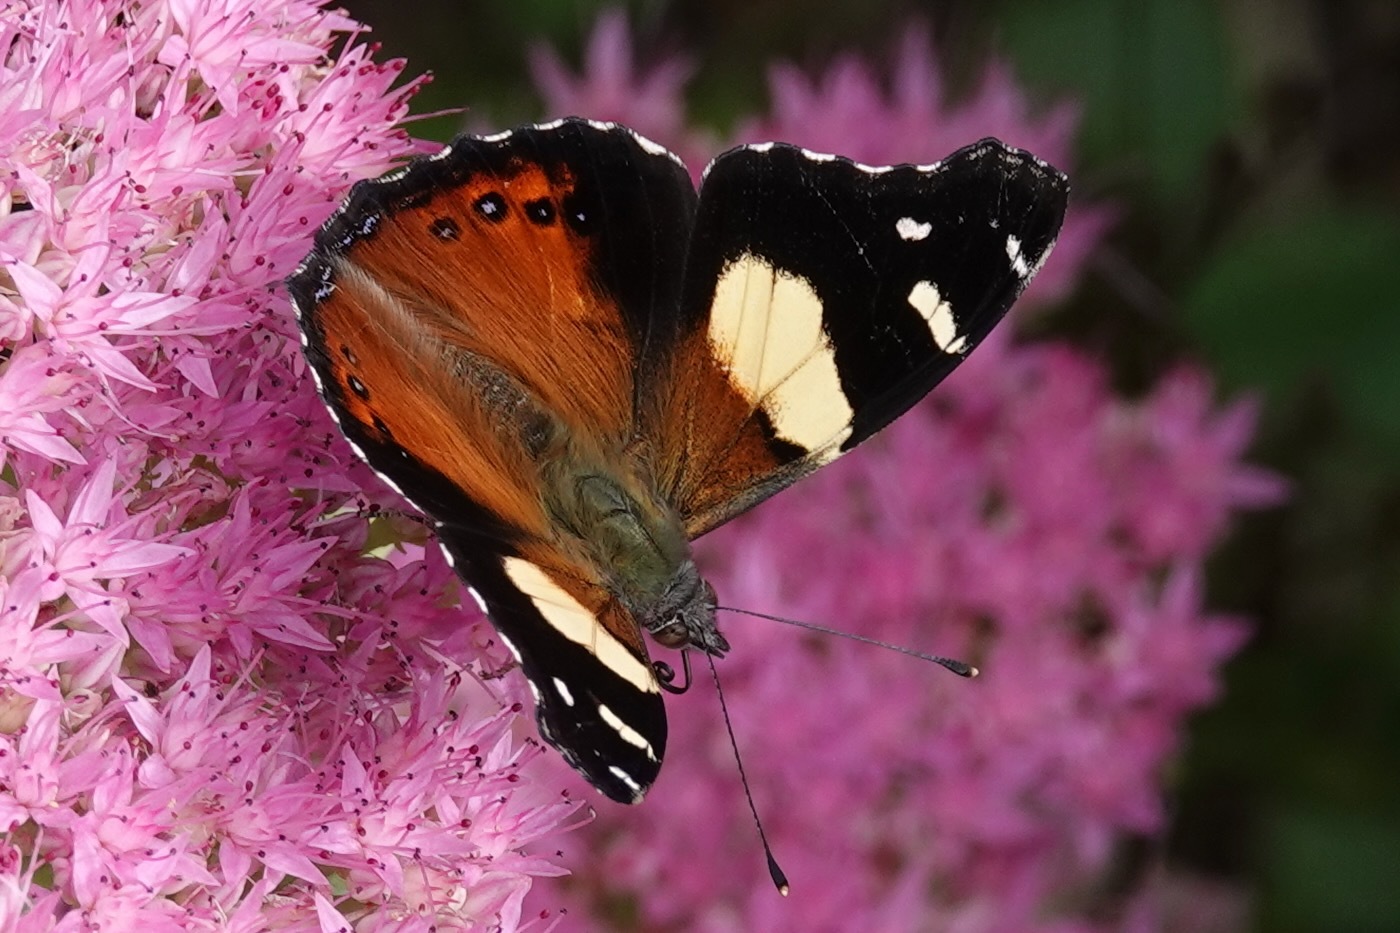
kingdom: Animalia
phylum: Arthropoda
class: Insecta
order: Lepidoptera
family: Nymphalidae
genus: Vanessa
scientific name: Vanessa itea
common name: Yellow admiral
